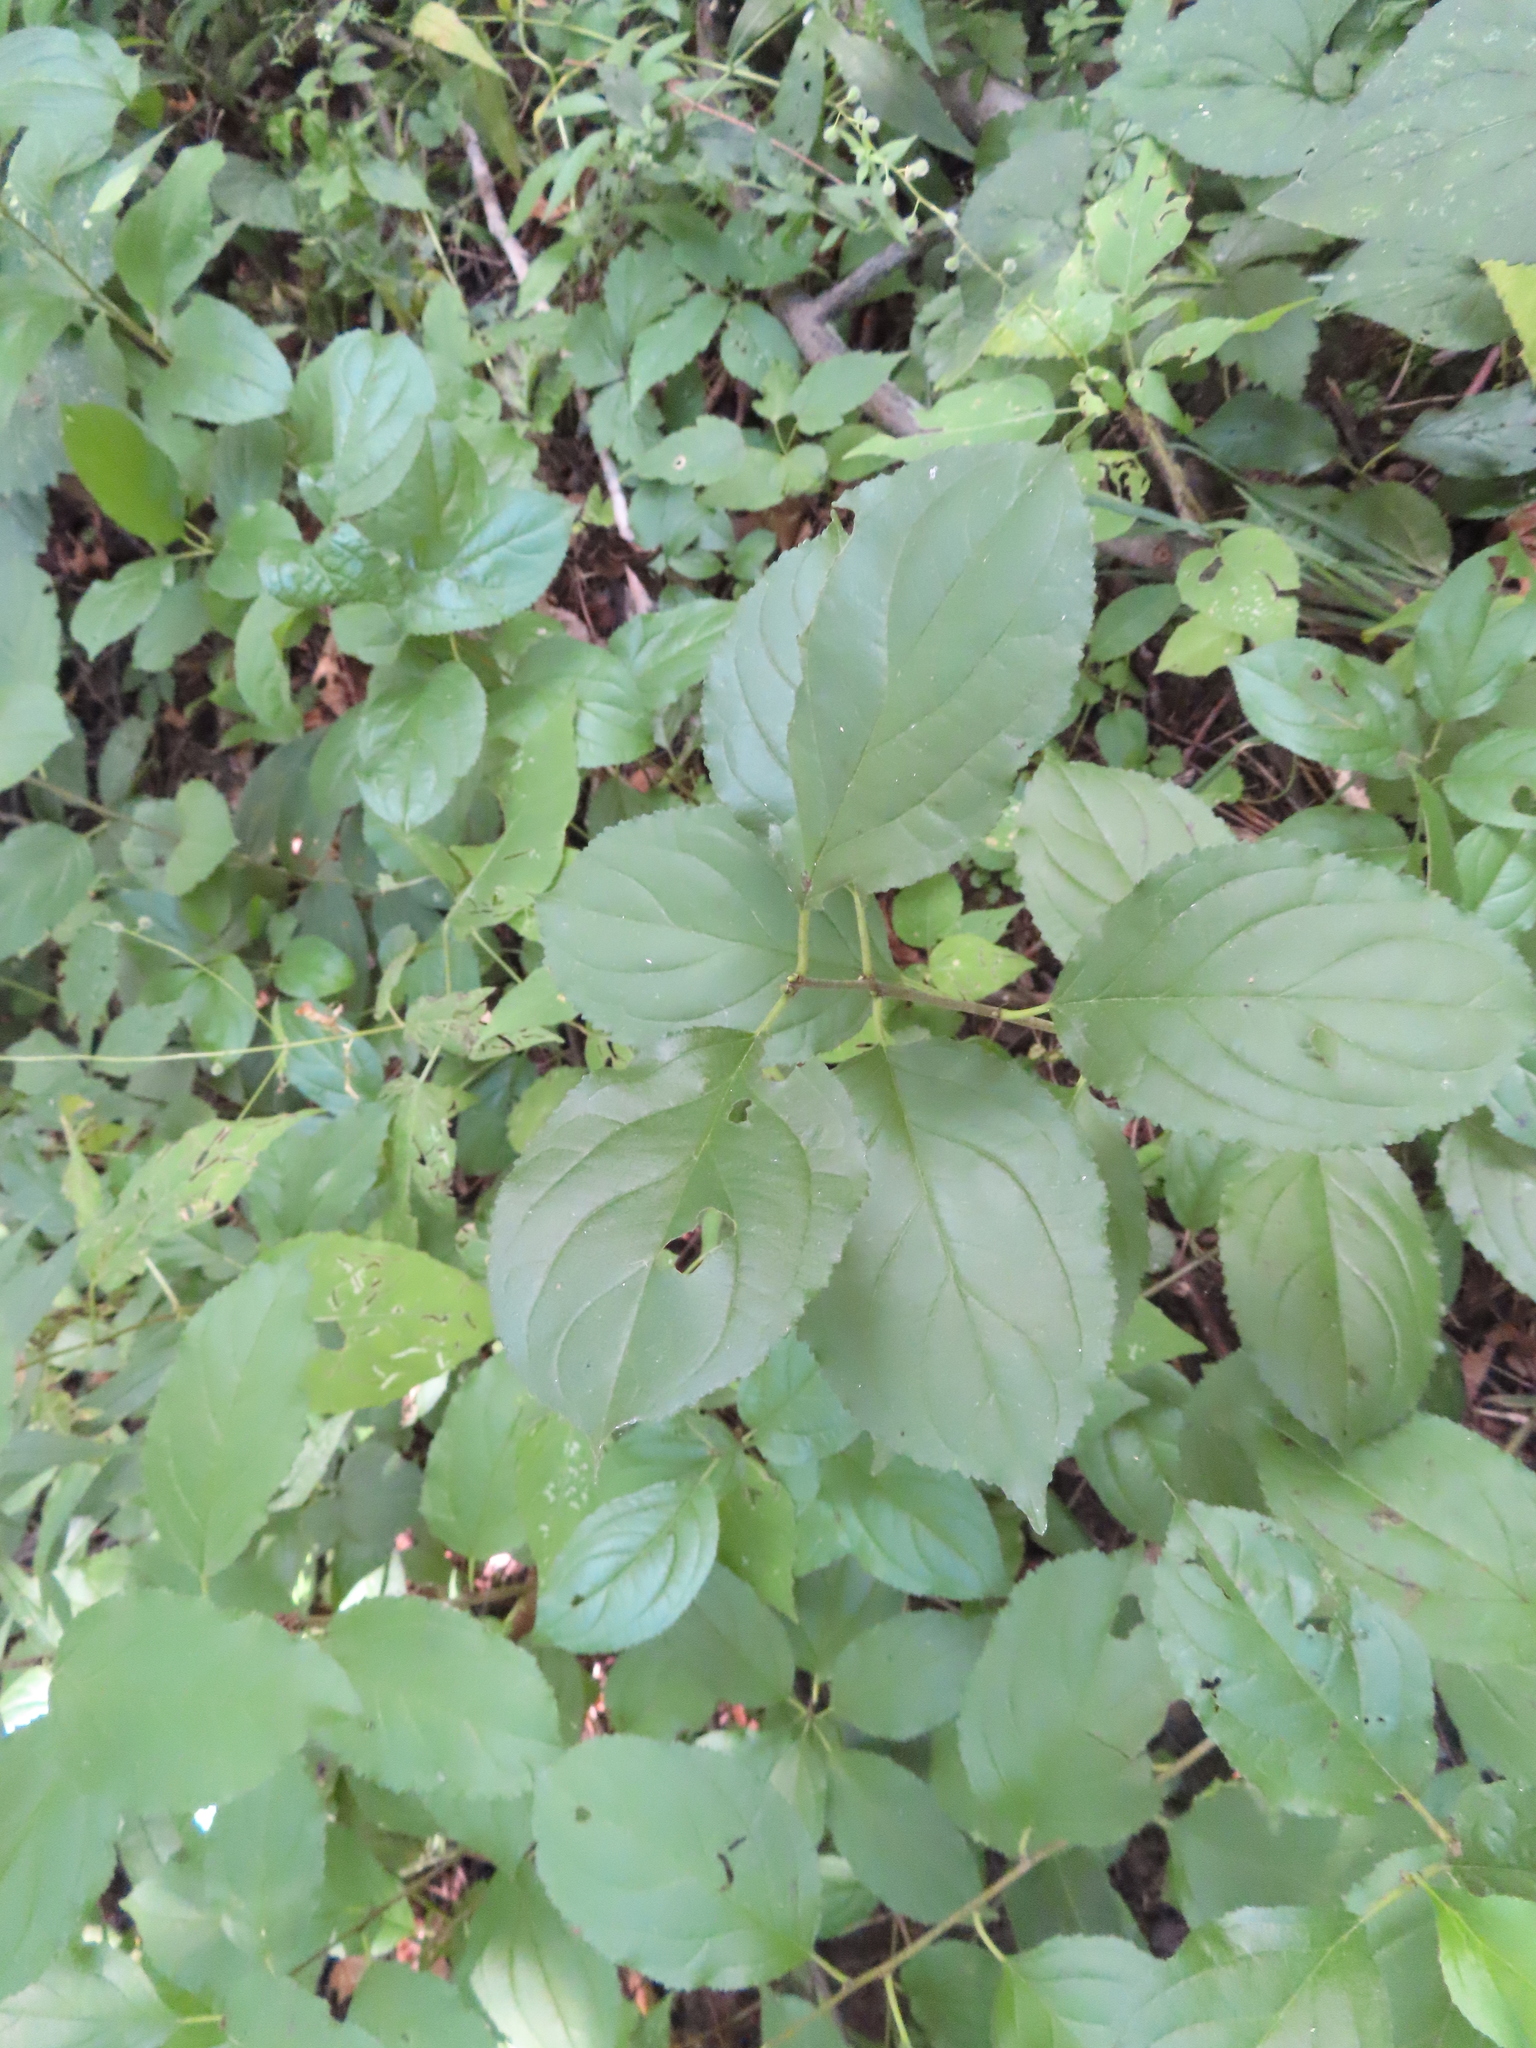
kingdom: Plantae
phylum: Tracheophyta
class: Magnoliopsida
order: Rosales
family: Rhamnaceae
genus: Rhamnus
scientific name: Rhamnus cathartica
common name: Common buckthorn
